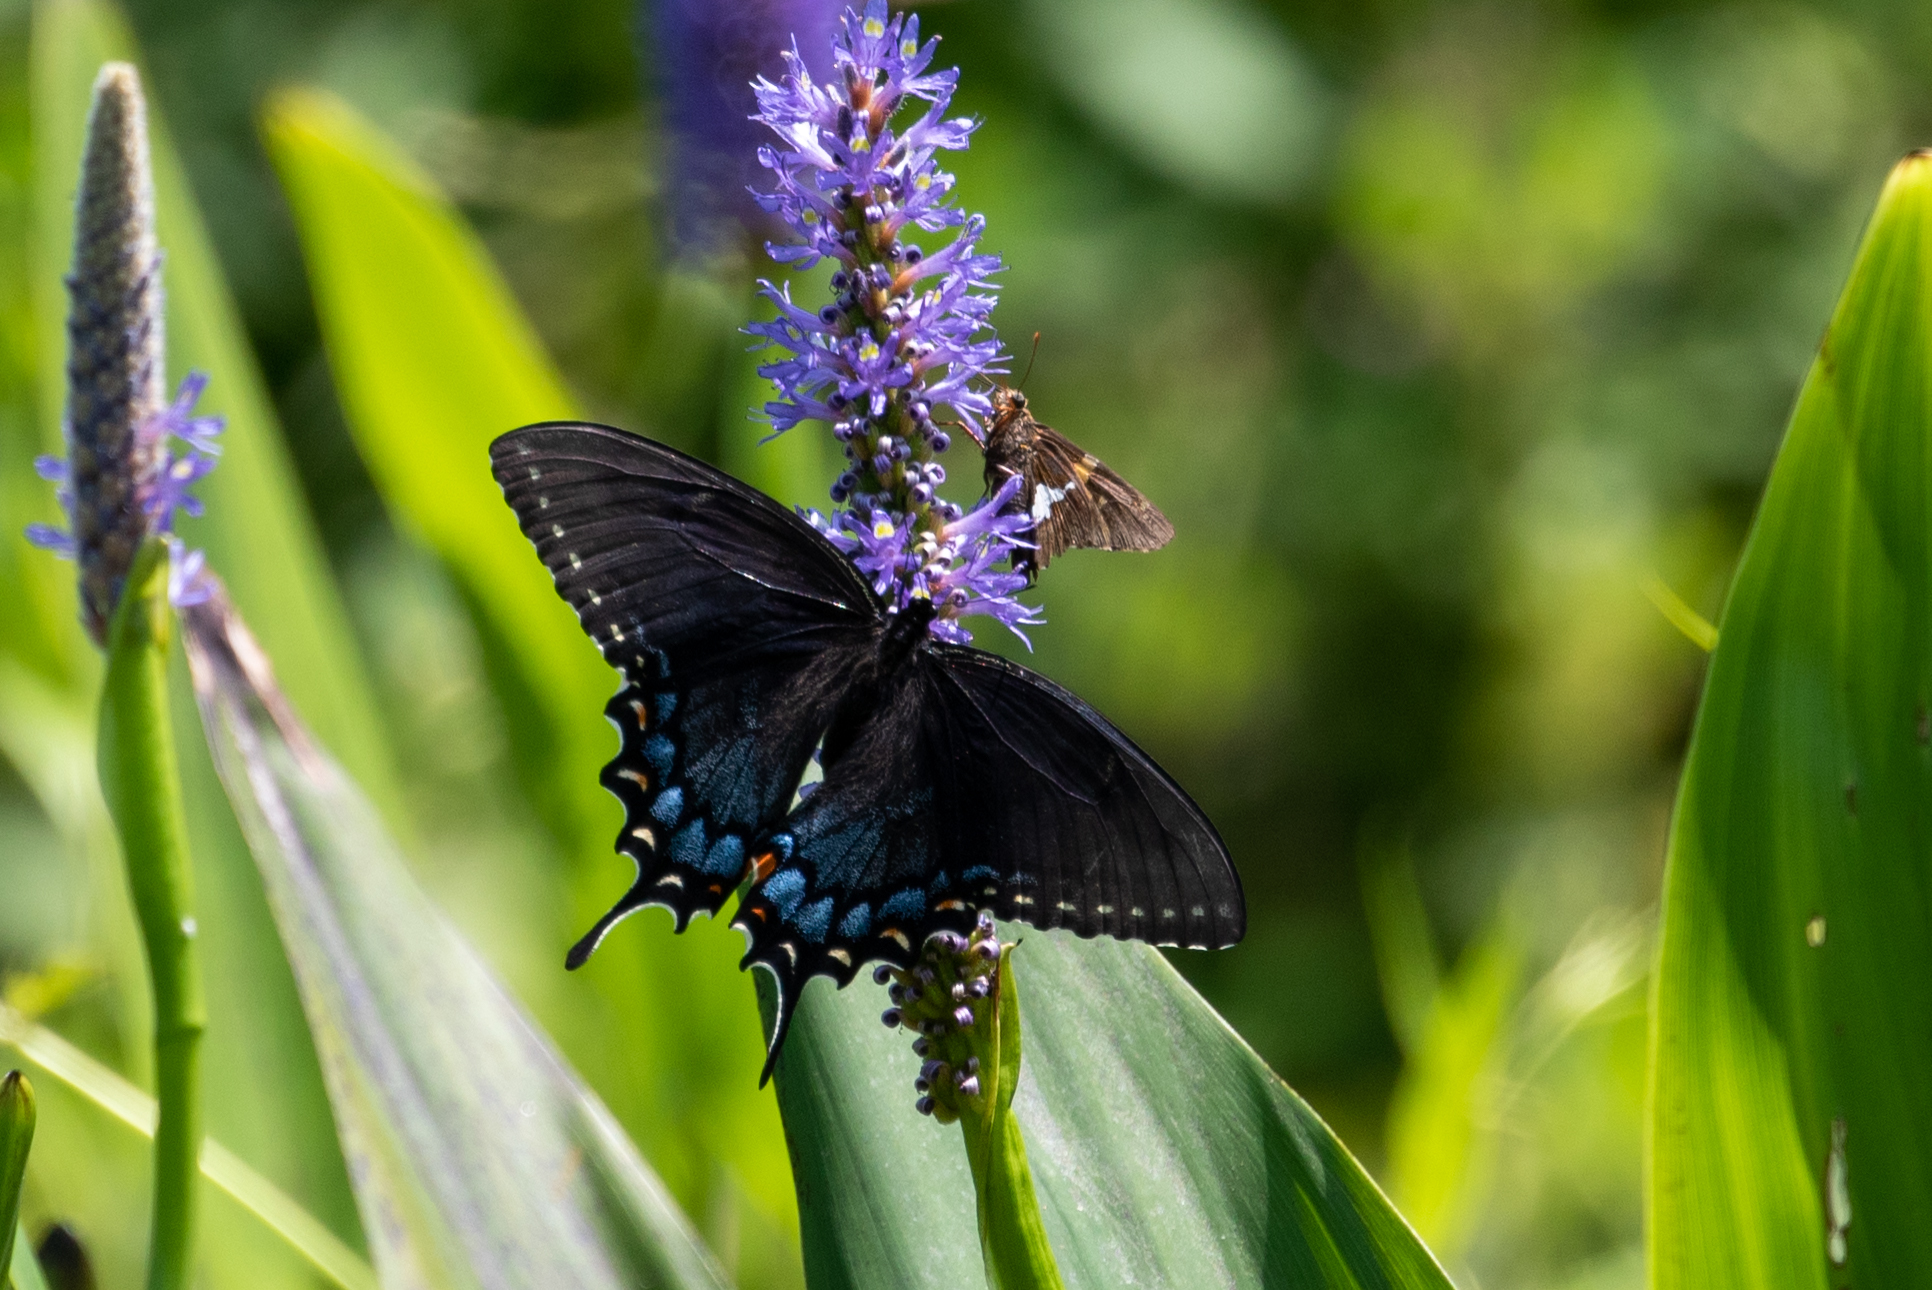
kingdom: Animalia
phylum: Arthropoda
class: Insecta
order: Lepidoptera
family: Papilionidae
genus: Papilio
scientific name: Papilio glaucus
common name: Tiger swallowtail
